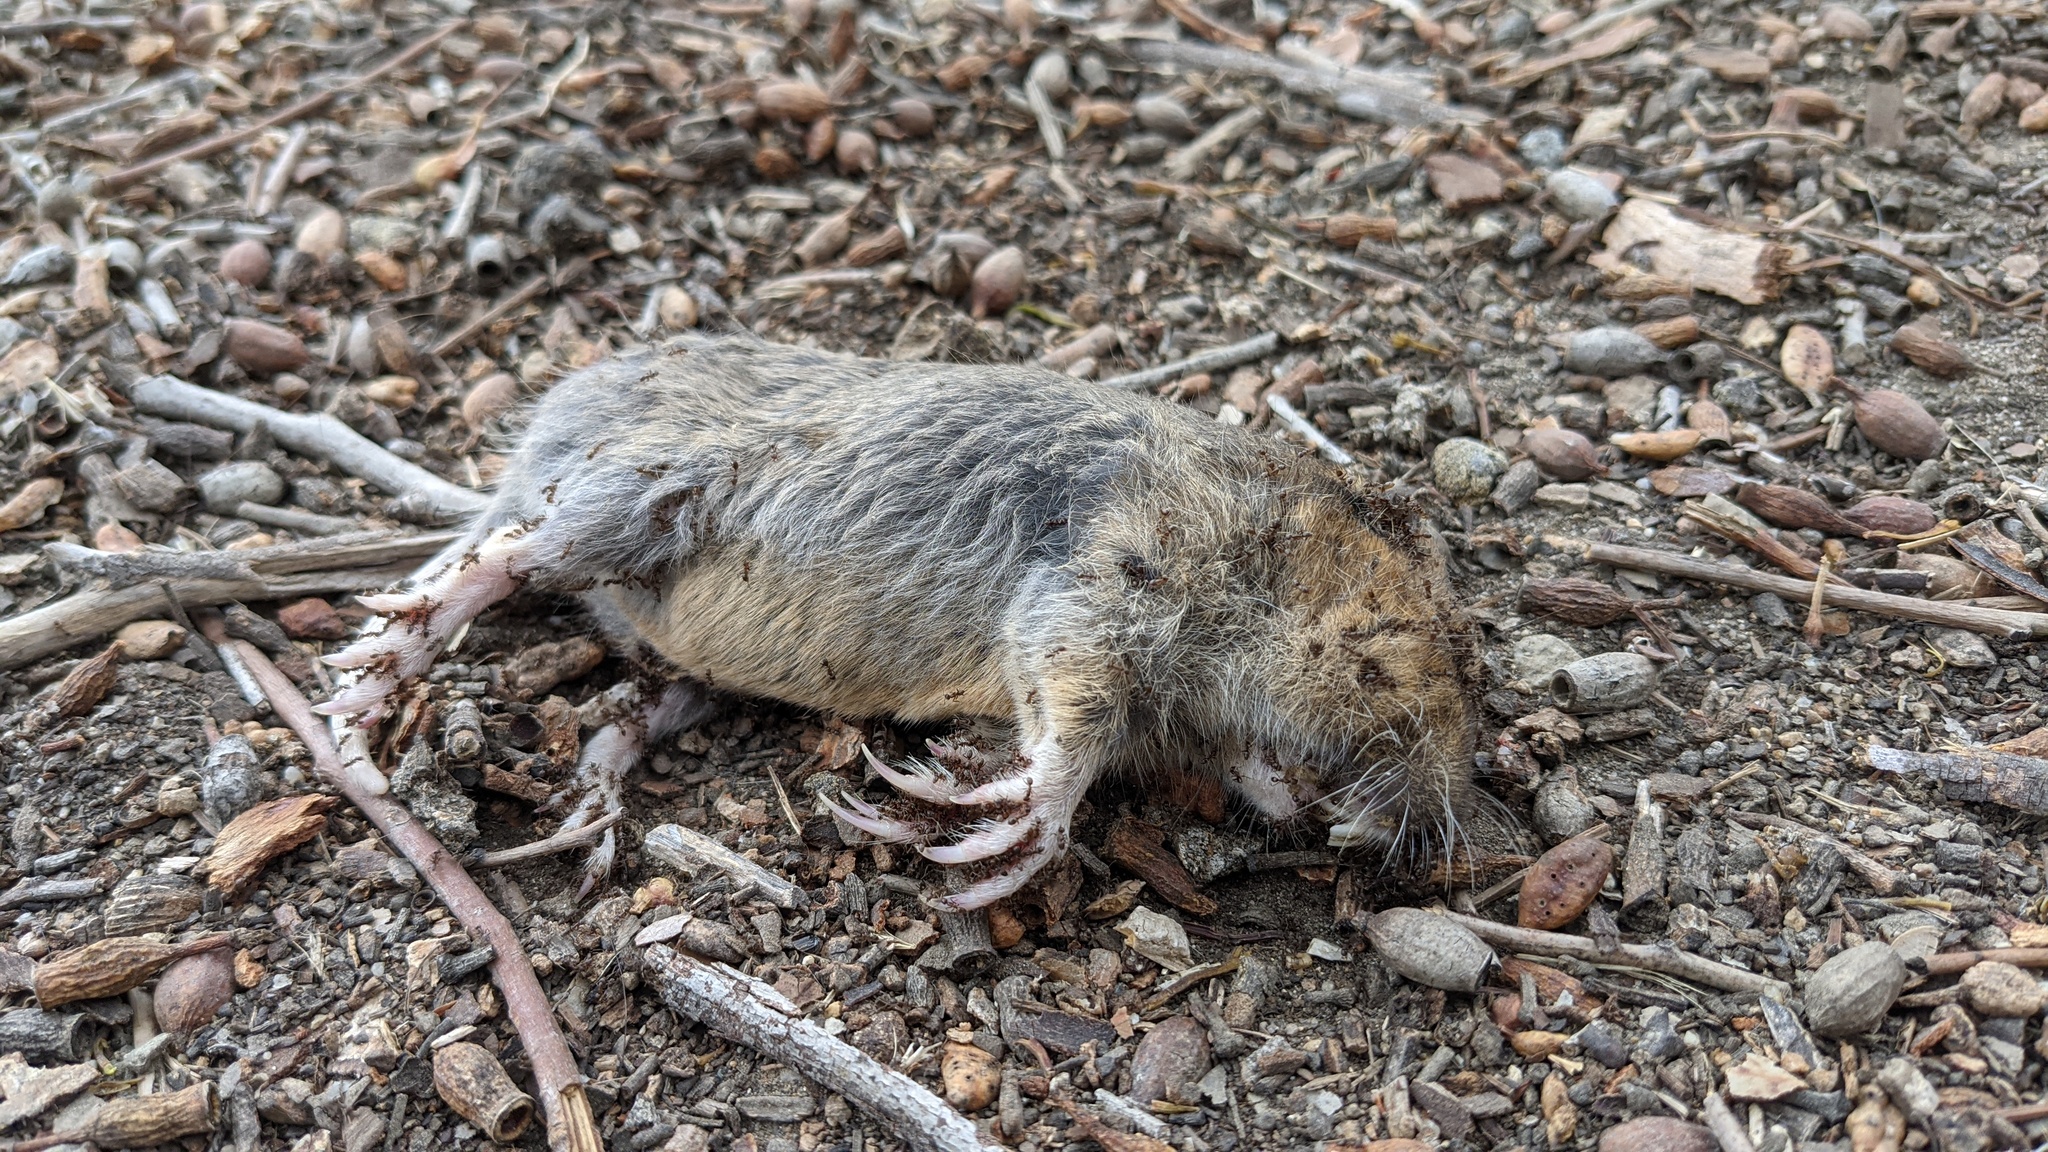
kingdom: Animalia
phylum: Chordata
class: Mammalia
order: Rodentia
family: Geomyidae
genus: Thomomys
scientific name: Thomomys bottae
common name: Botta's pocket gopher
